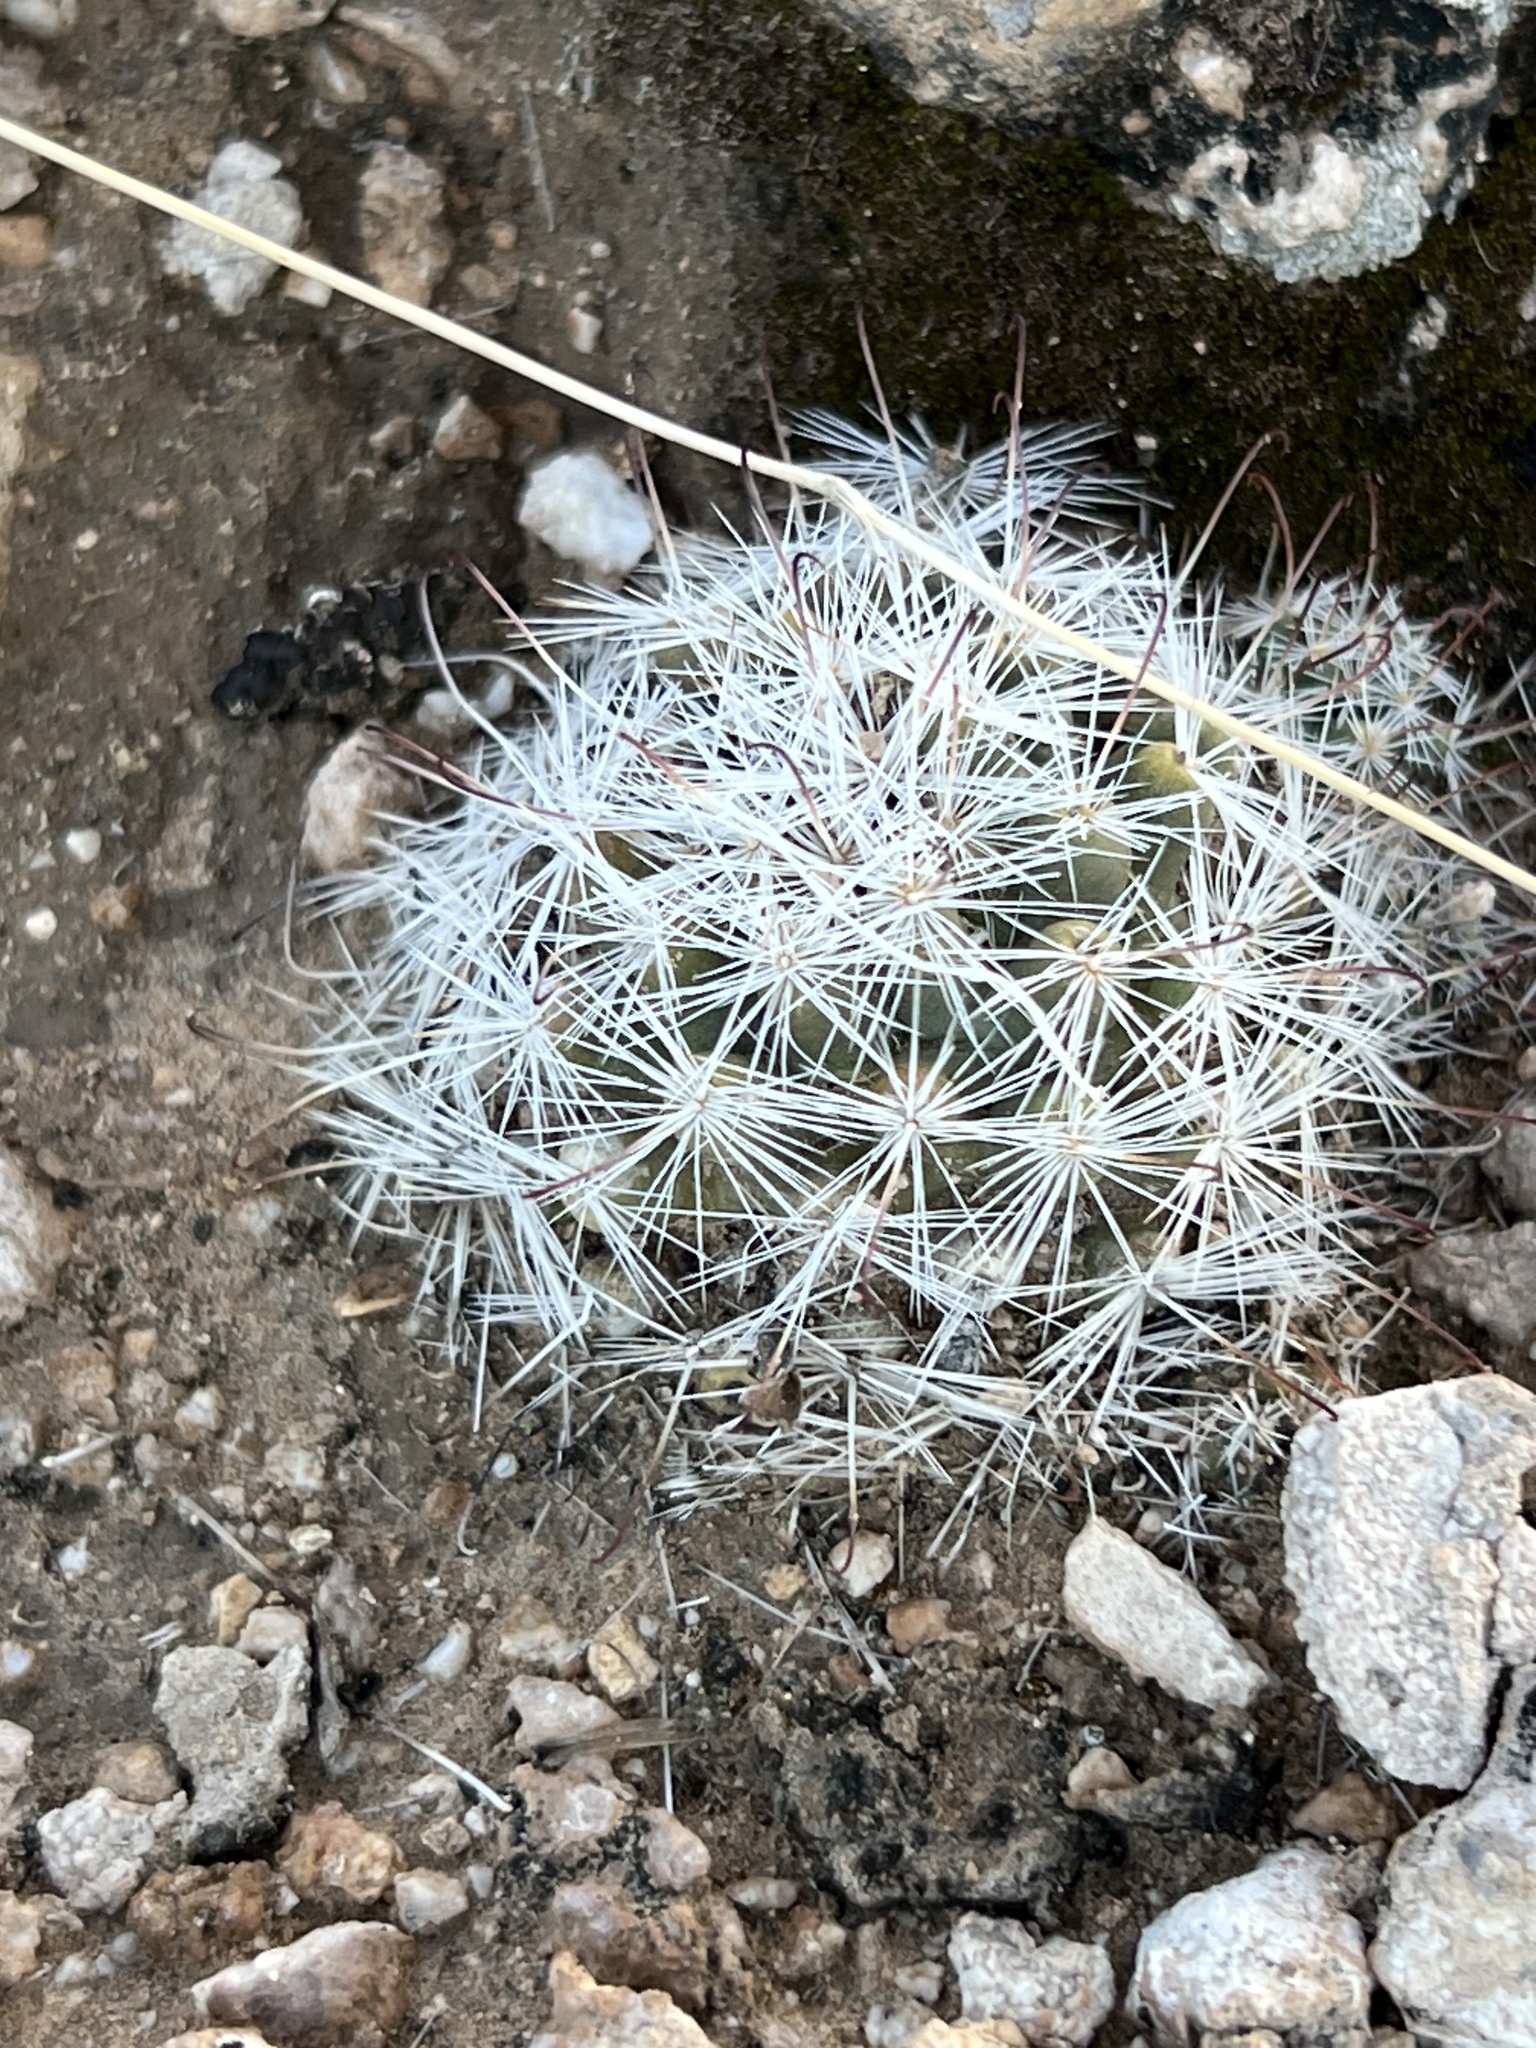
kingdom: Plantae
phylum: Tracheophyta
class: Magnoliopsida
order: Caryophyllales
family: Cactaceae
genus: Cochemiea
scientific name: Cochemiea tetrancistra
